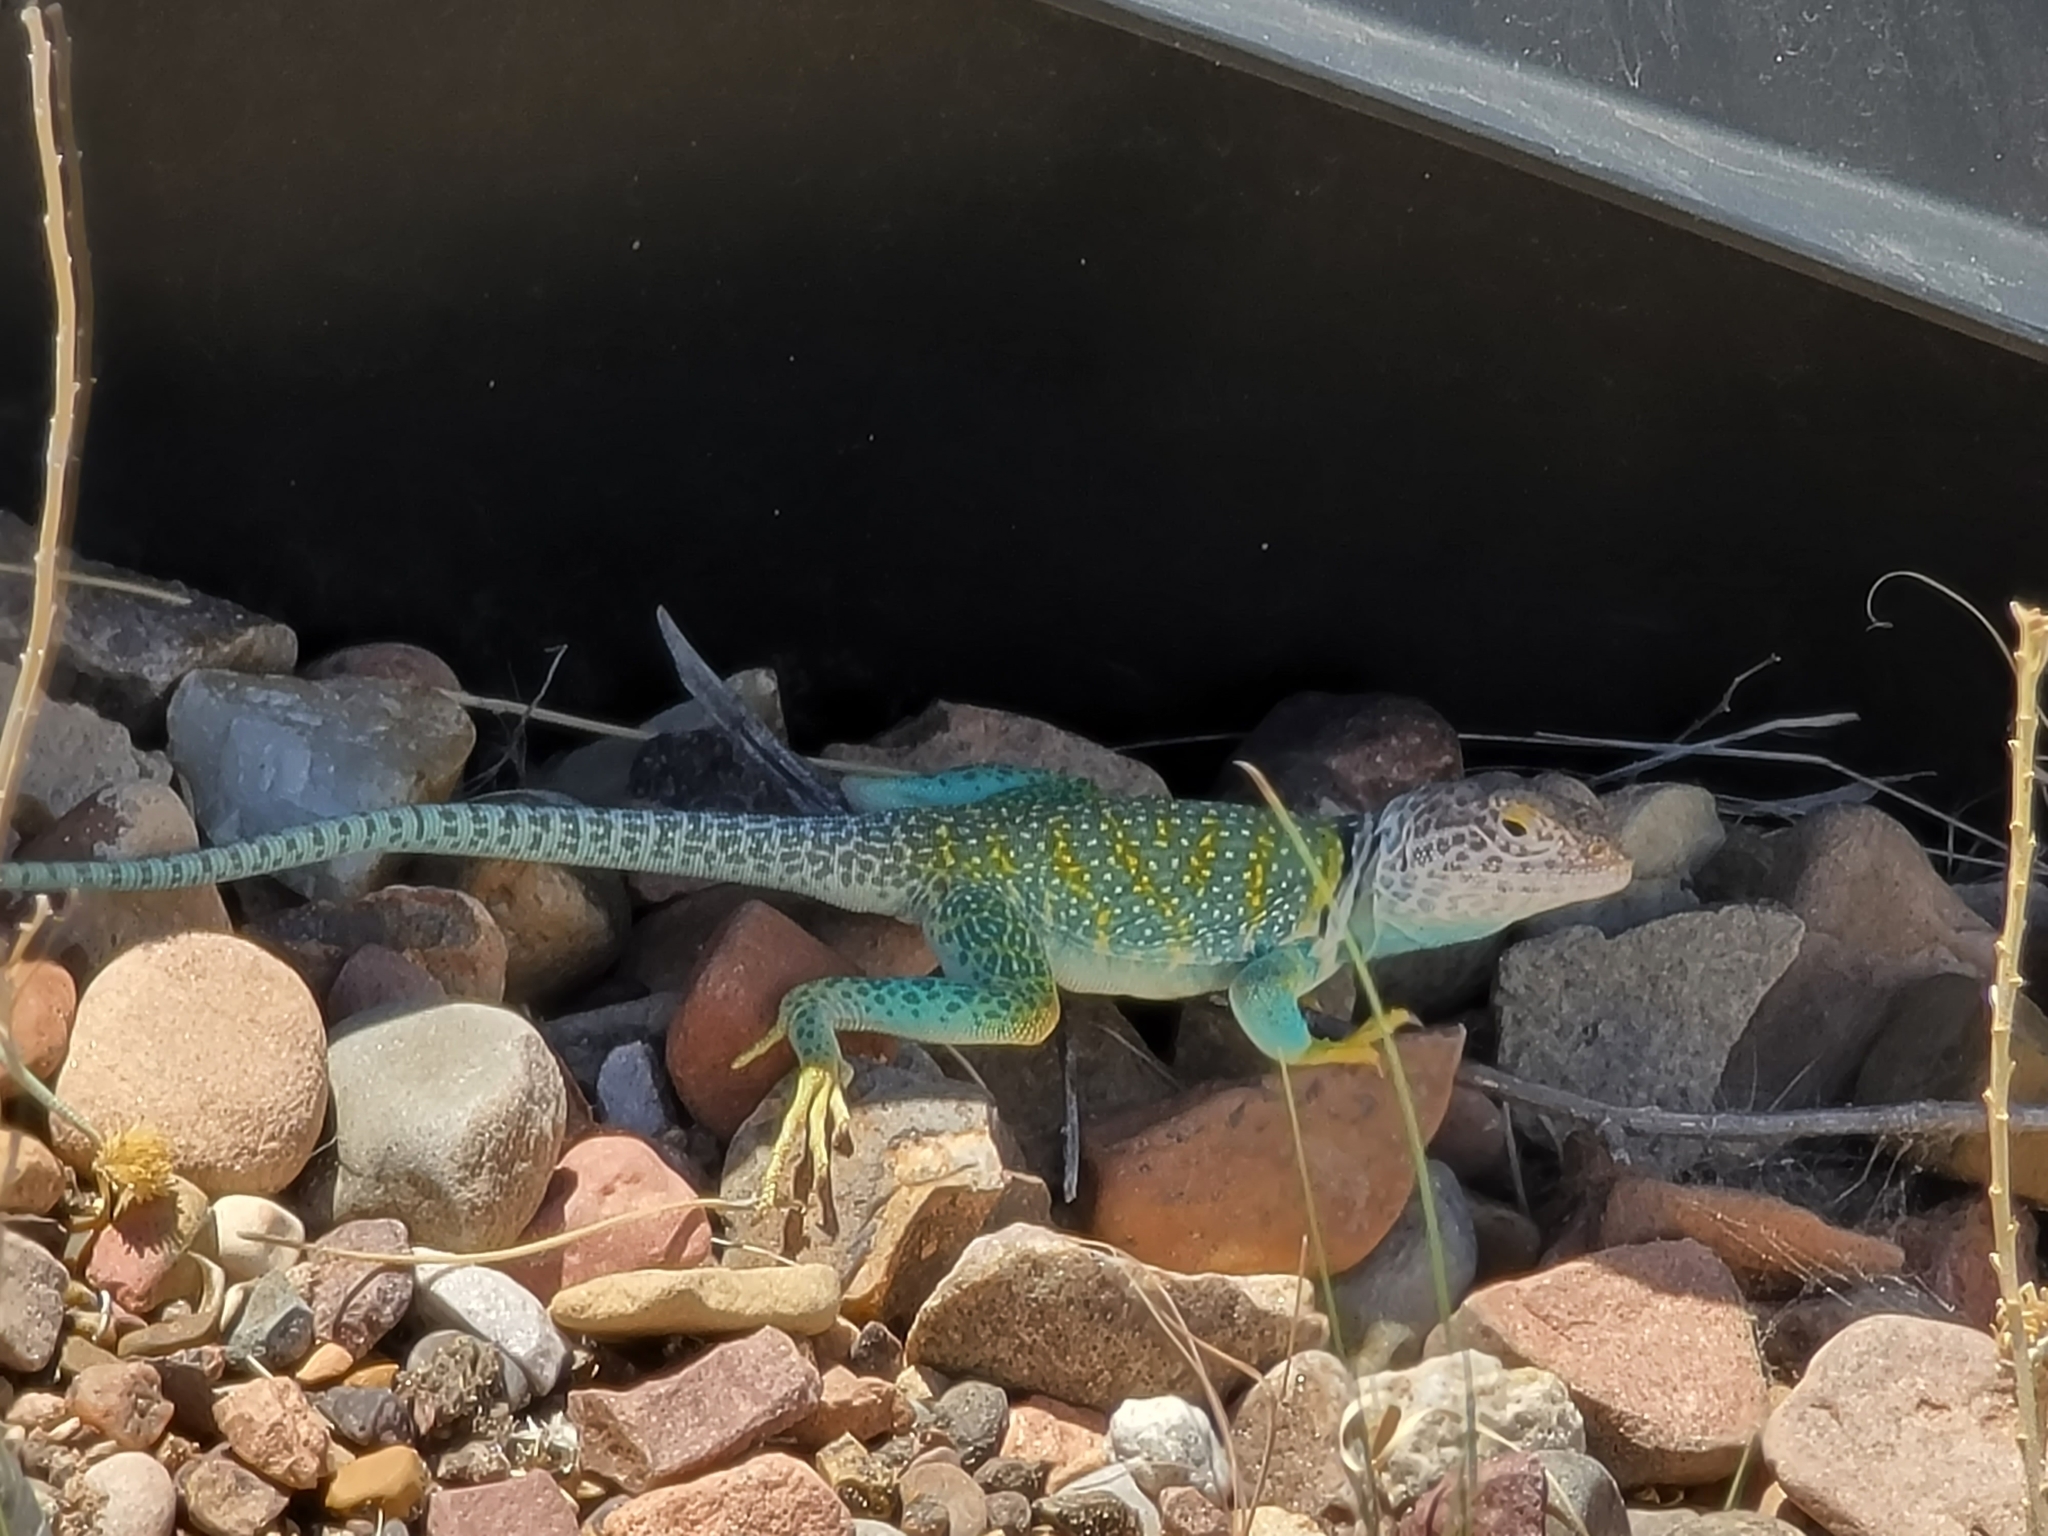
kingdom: Animalia
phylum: Chordata
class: Squamata
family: Crotaphytidae
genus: Crotaphytus
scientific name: Crotaphytus collaris
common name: Collared lizard
